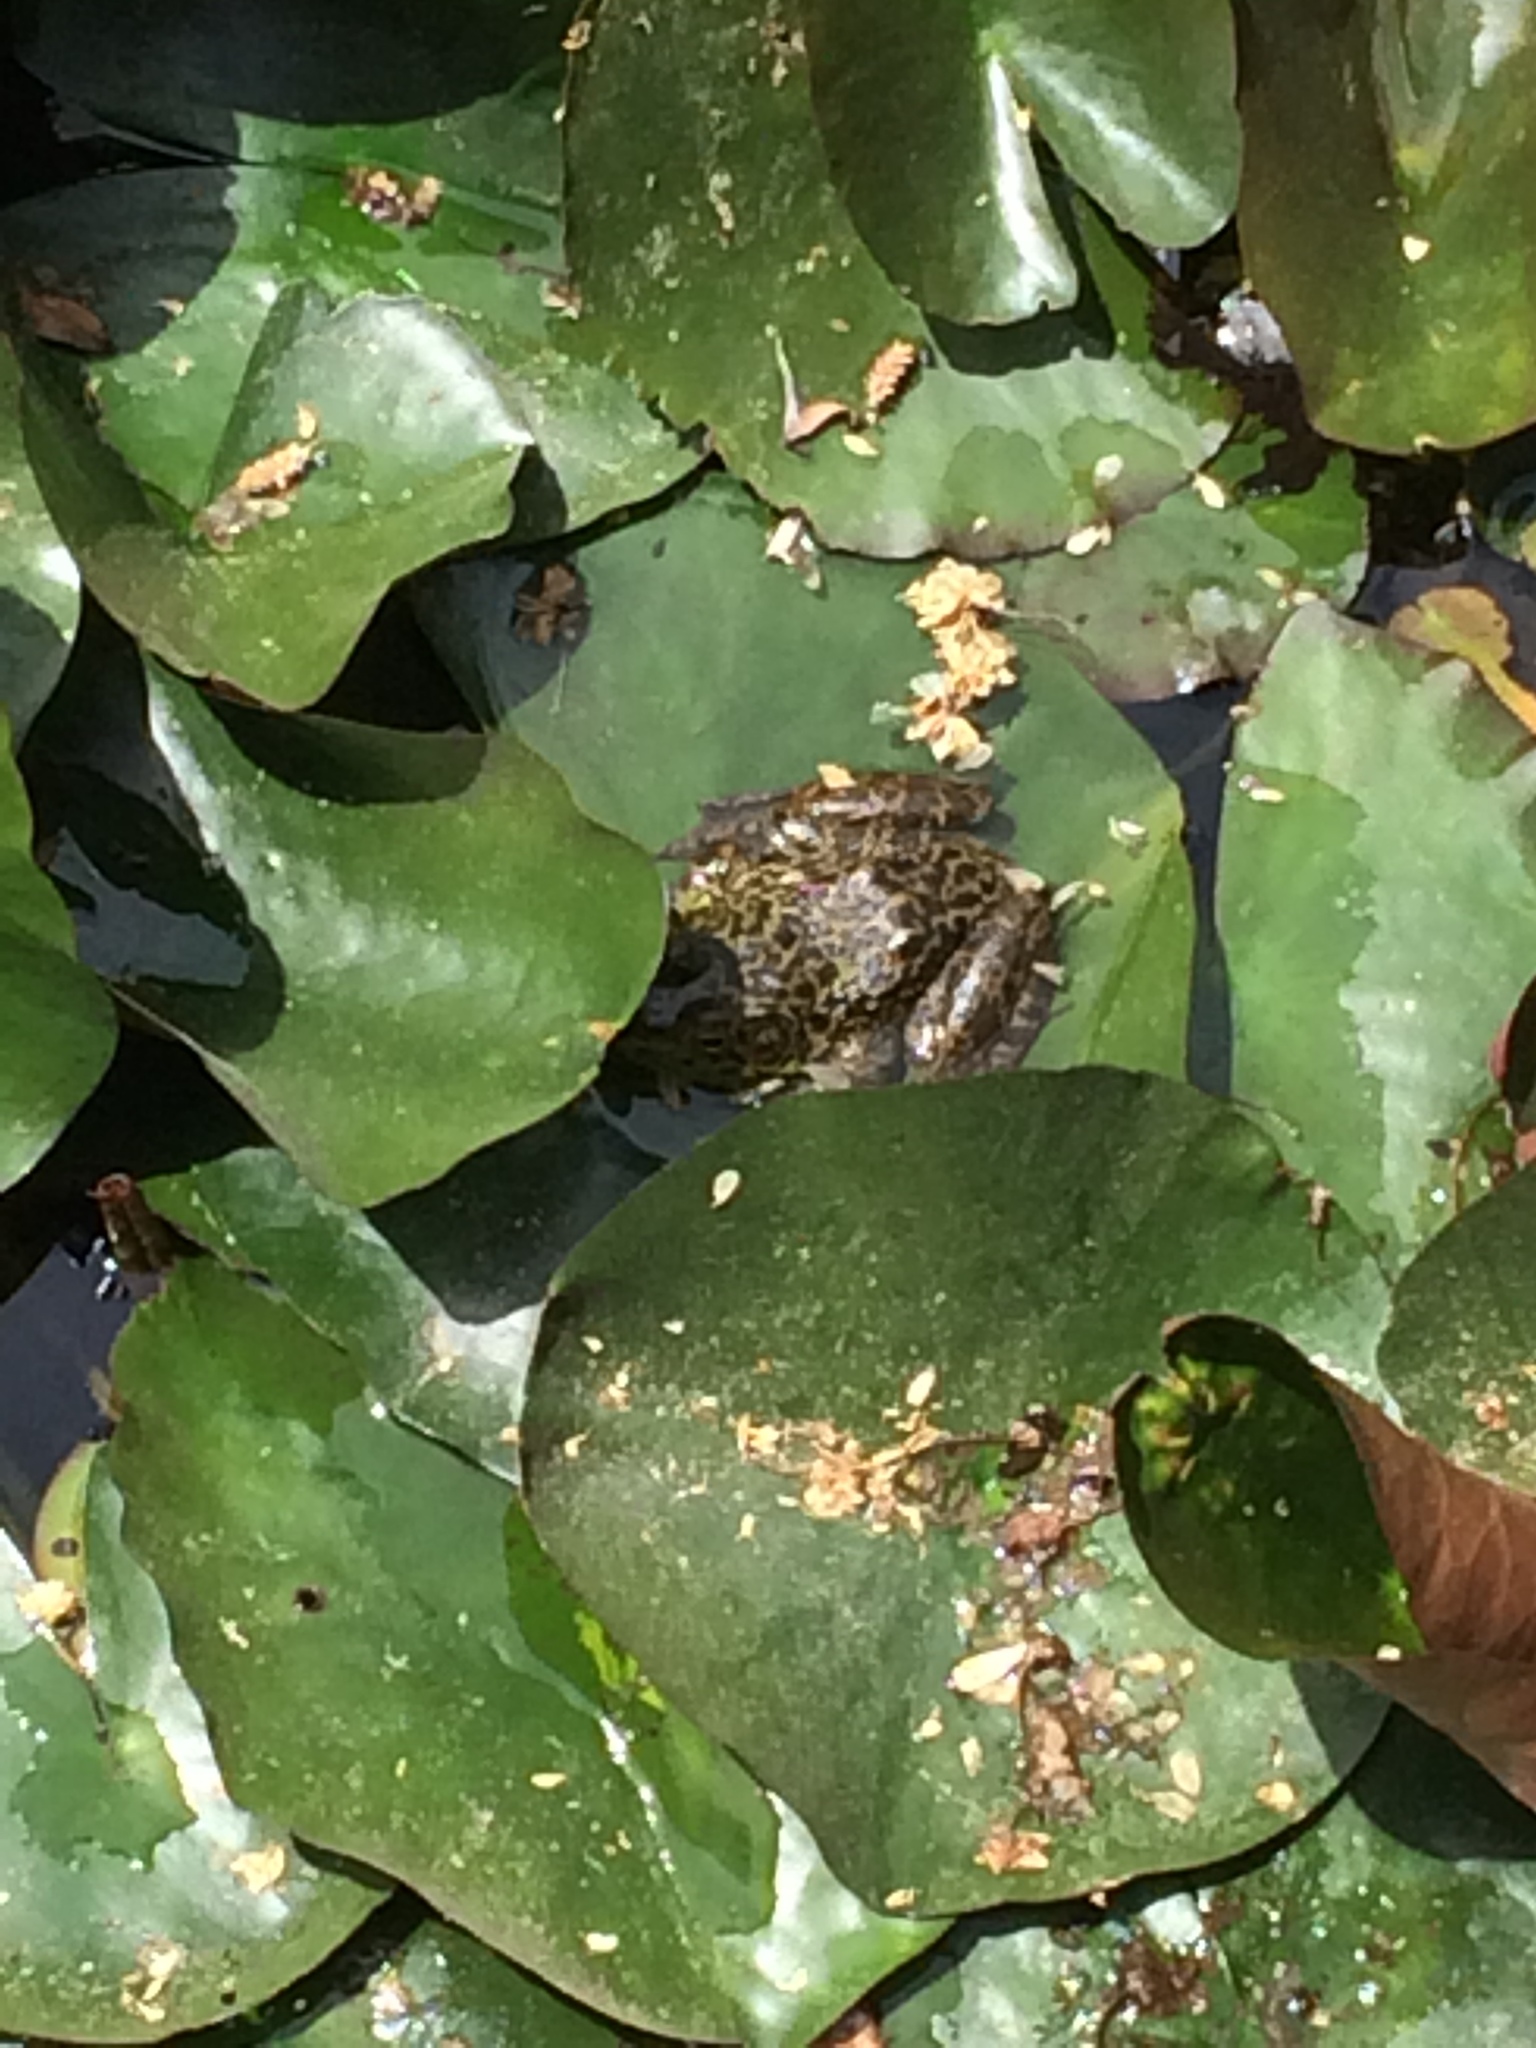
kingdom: Animalia
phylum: Chordata
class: Amphibia
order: Anura
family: Ranidae
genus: Lithobates
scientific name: Lithobates catesbeianus
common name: American bullfrog
